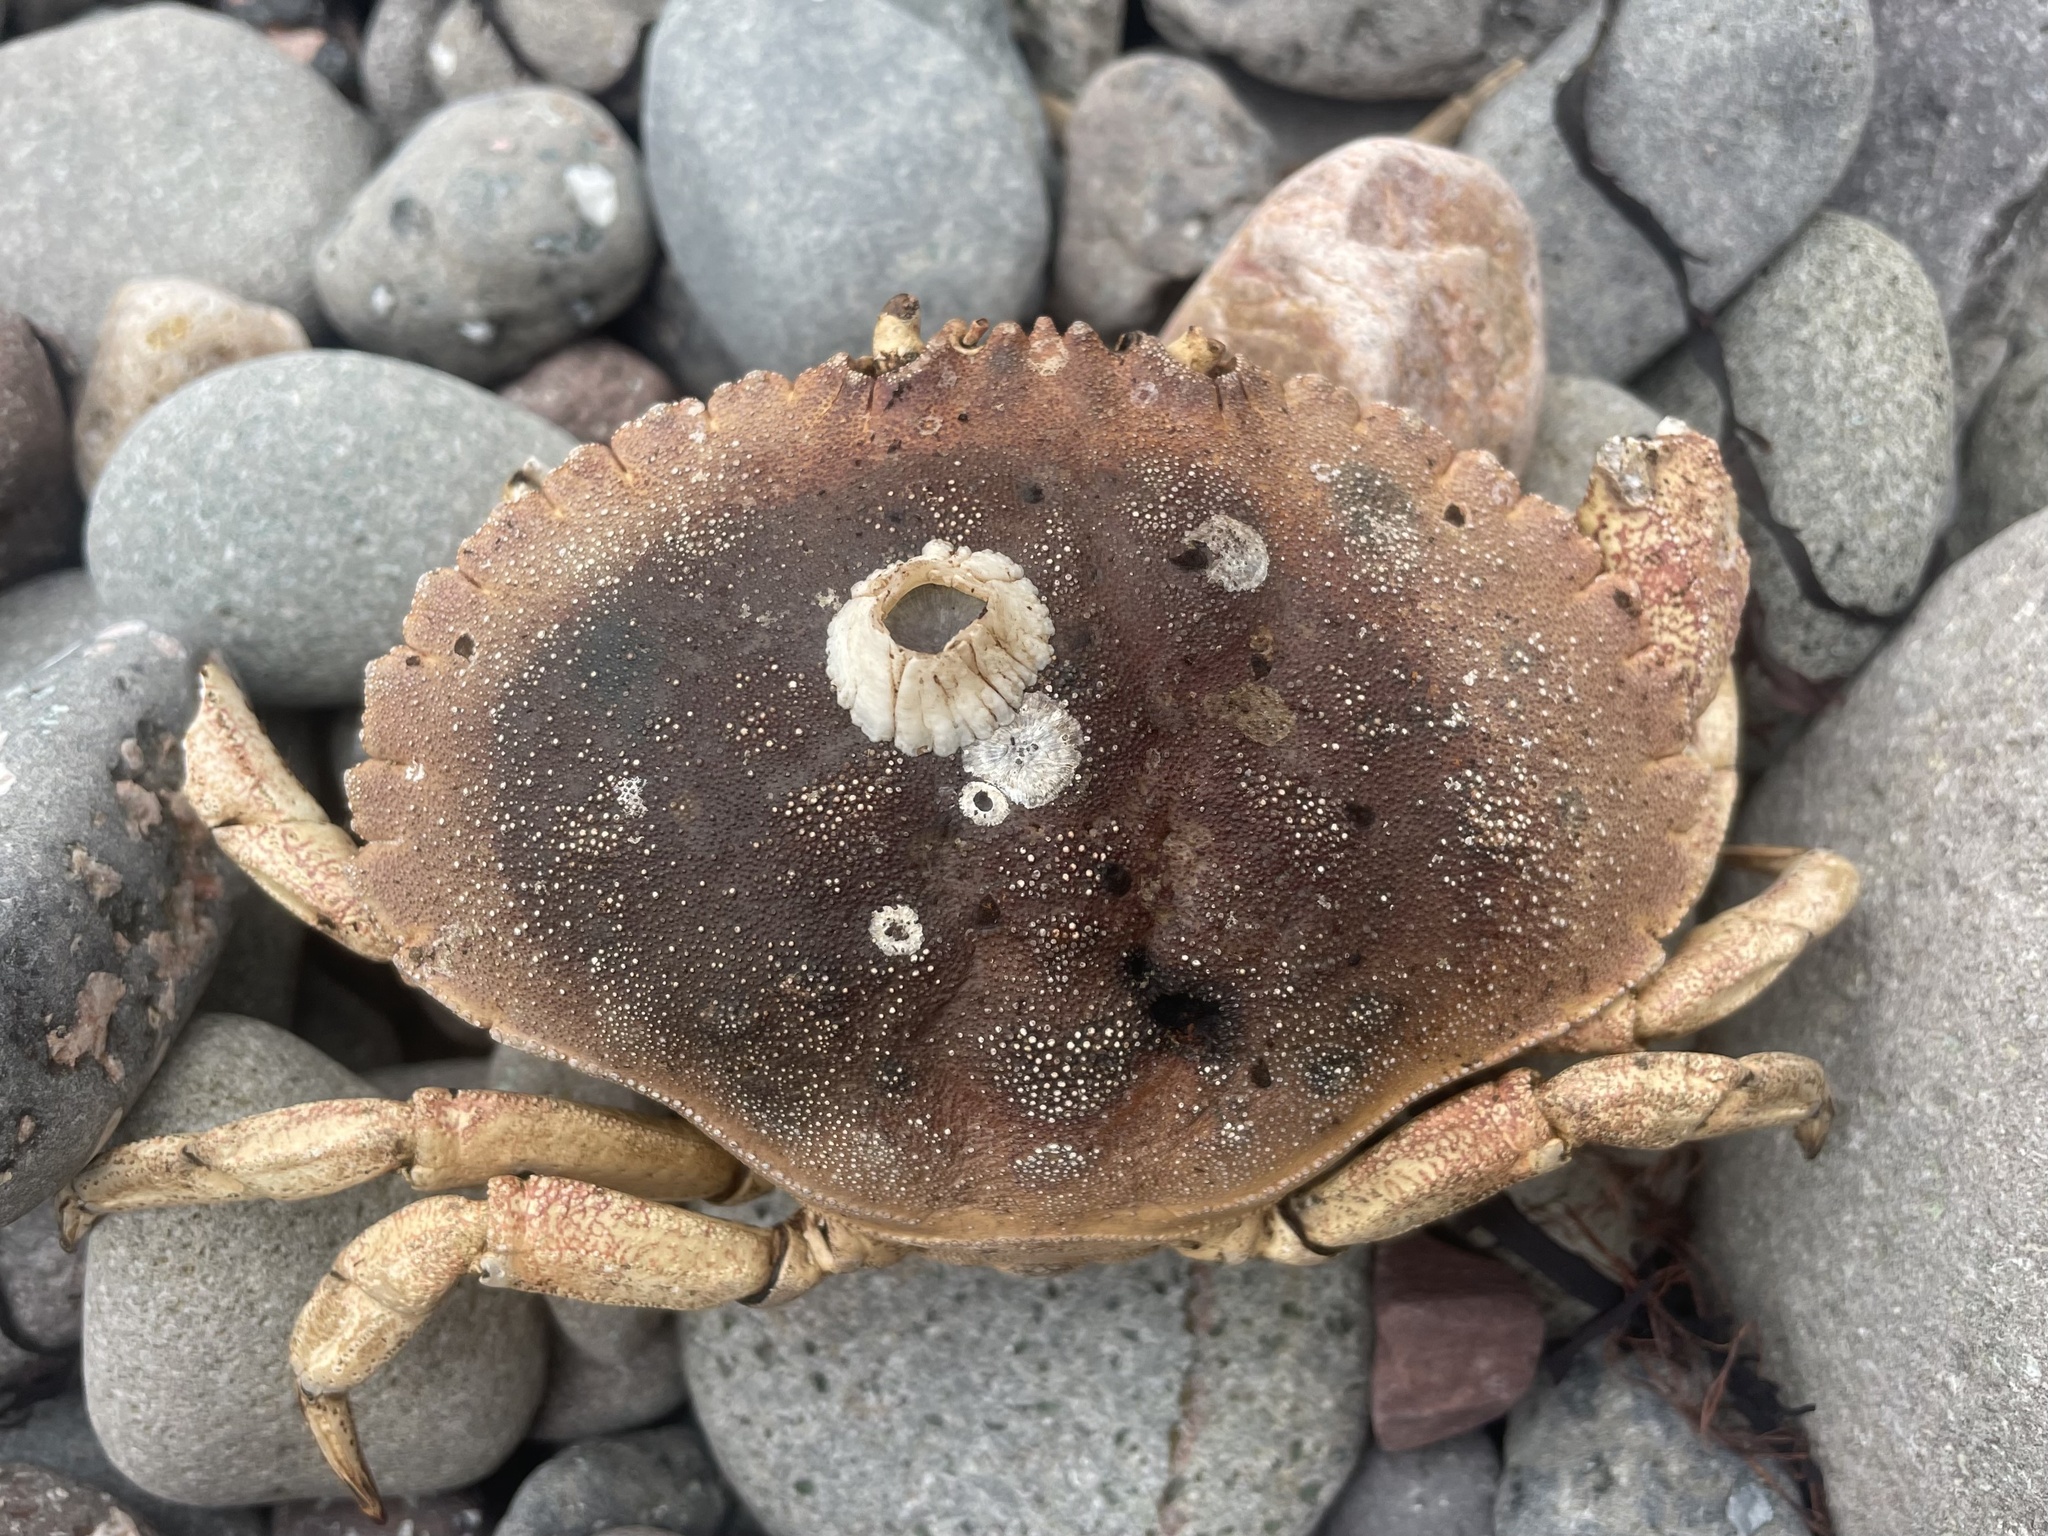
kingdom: Animalia
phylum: Arthropoda
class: Malacostraca
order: Decapoda
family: Cancridae
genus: Cancer
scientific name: Cancer borealis
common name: Jonah crab
